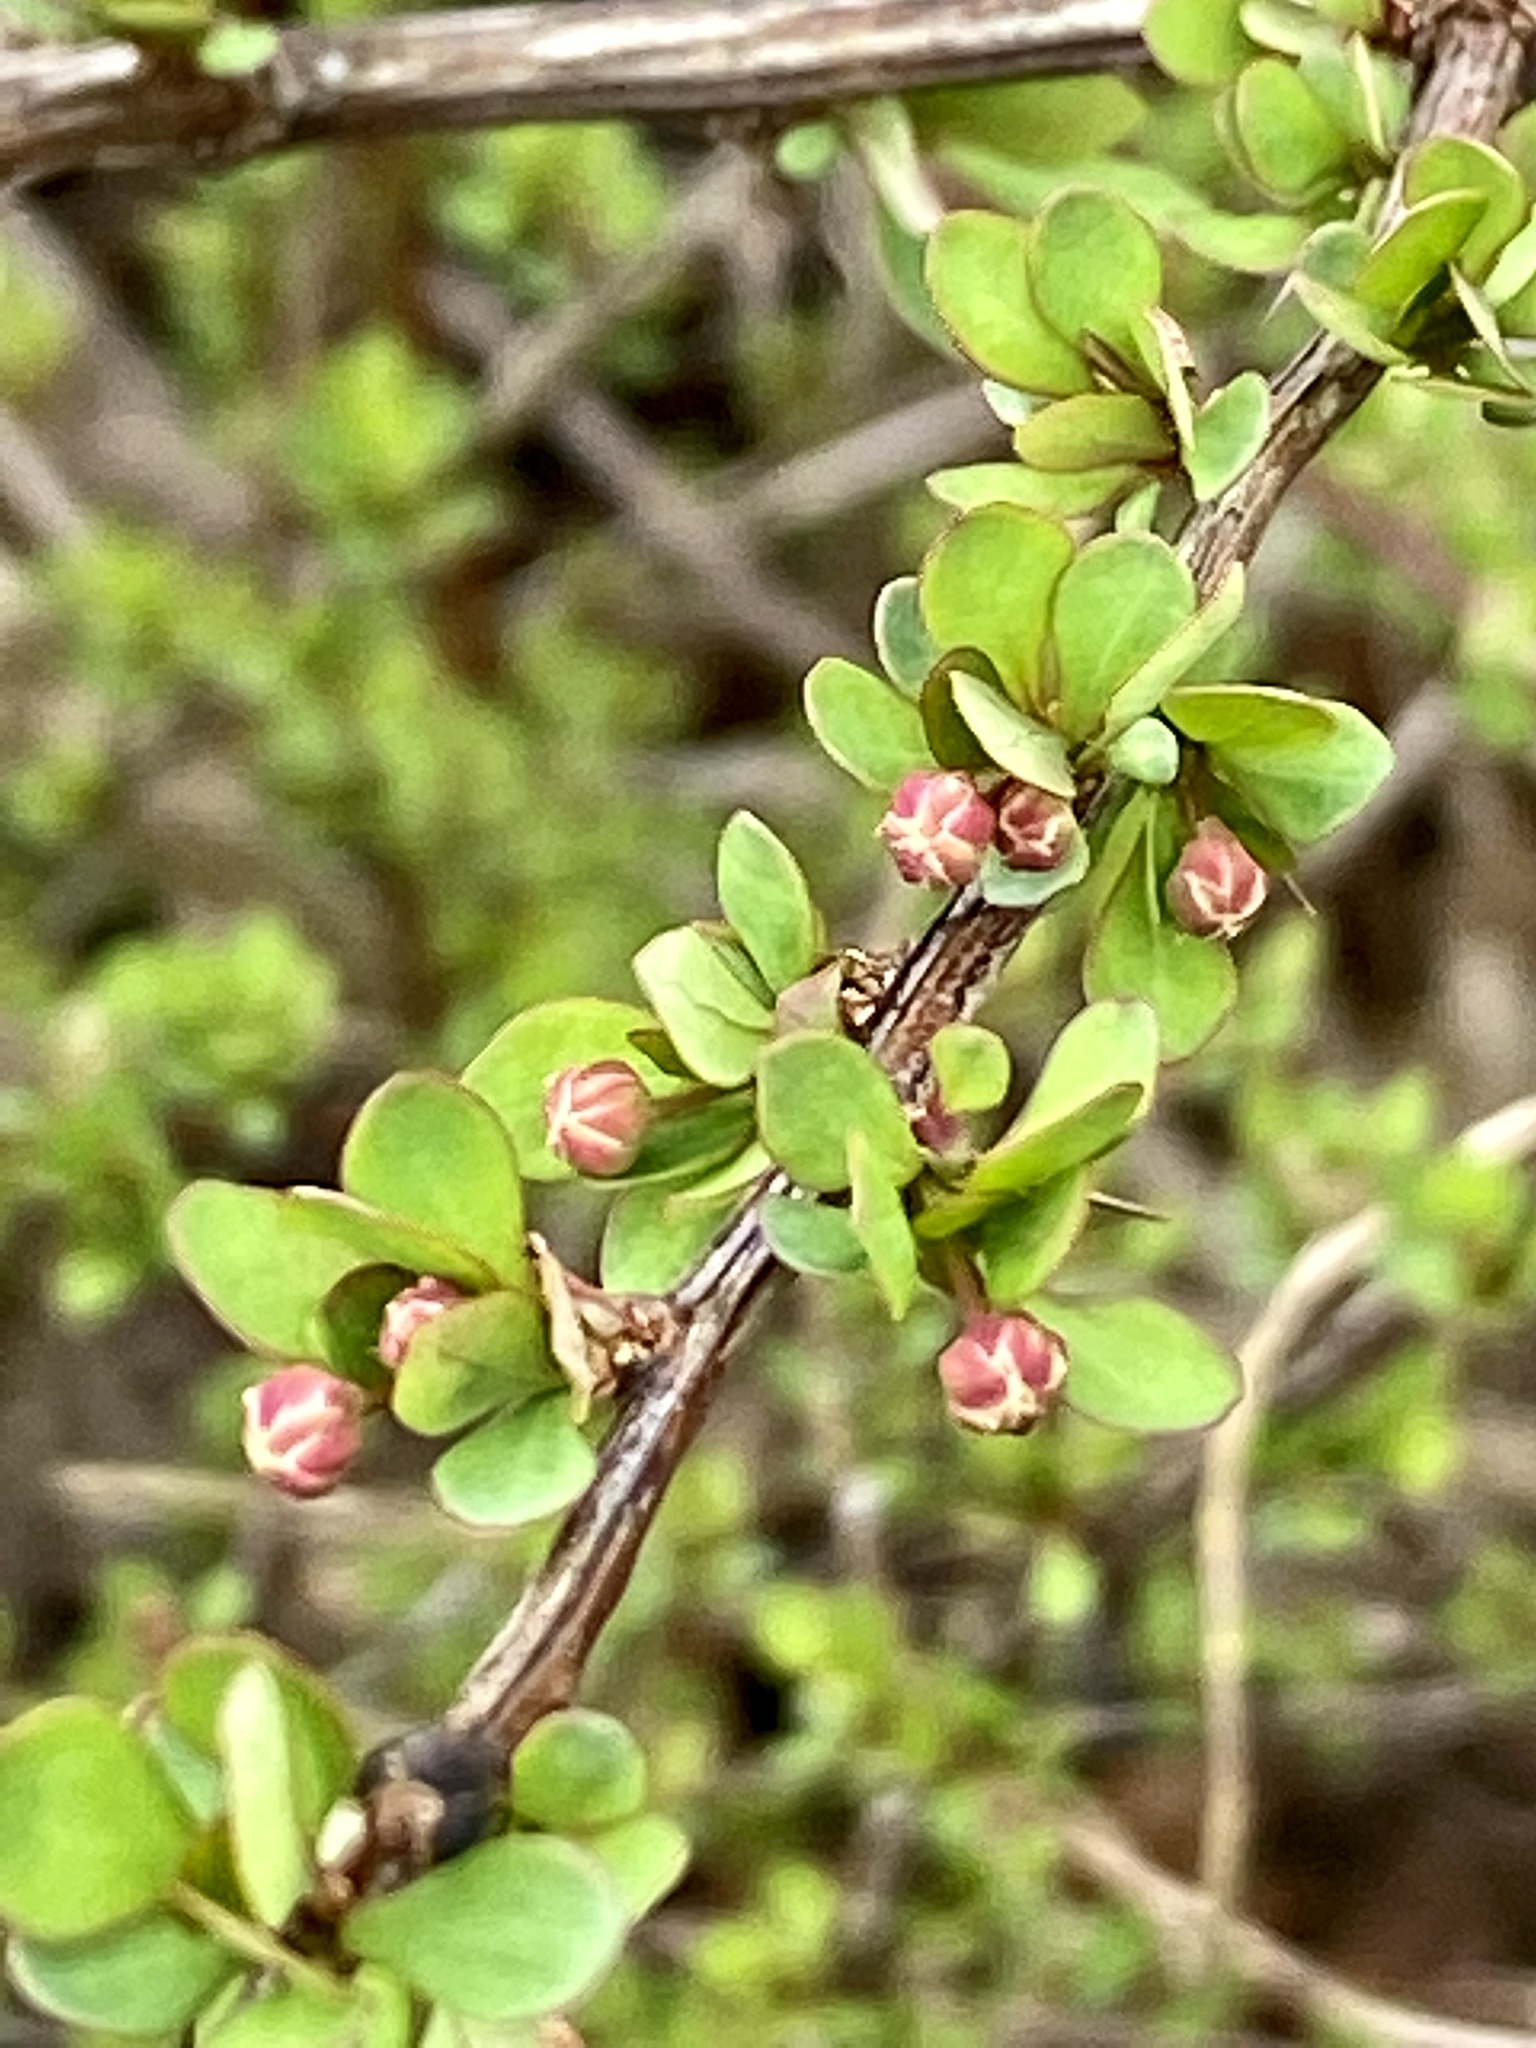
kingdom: Plantae
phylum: Tracheophyta
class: Magnoliopsida
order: Ranunculales
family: Berberidaceae
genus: Berberis
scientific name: Berberis thunbergii
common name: Japanese barberry
